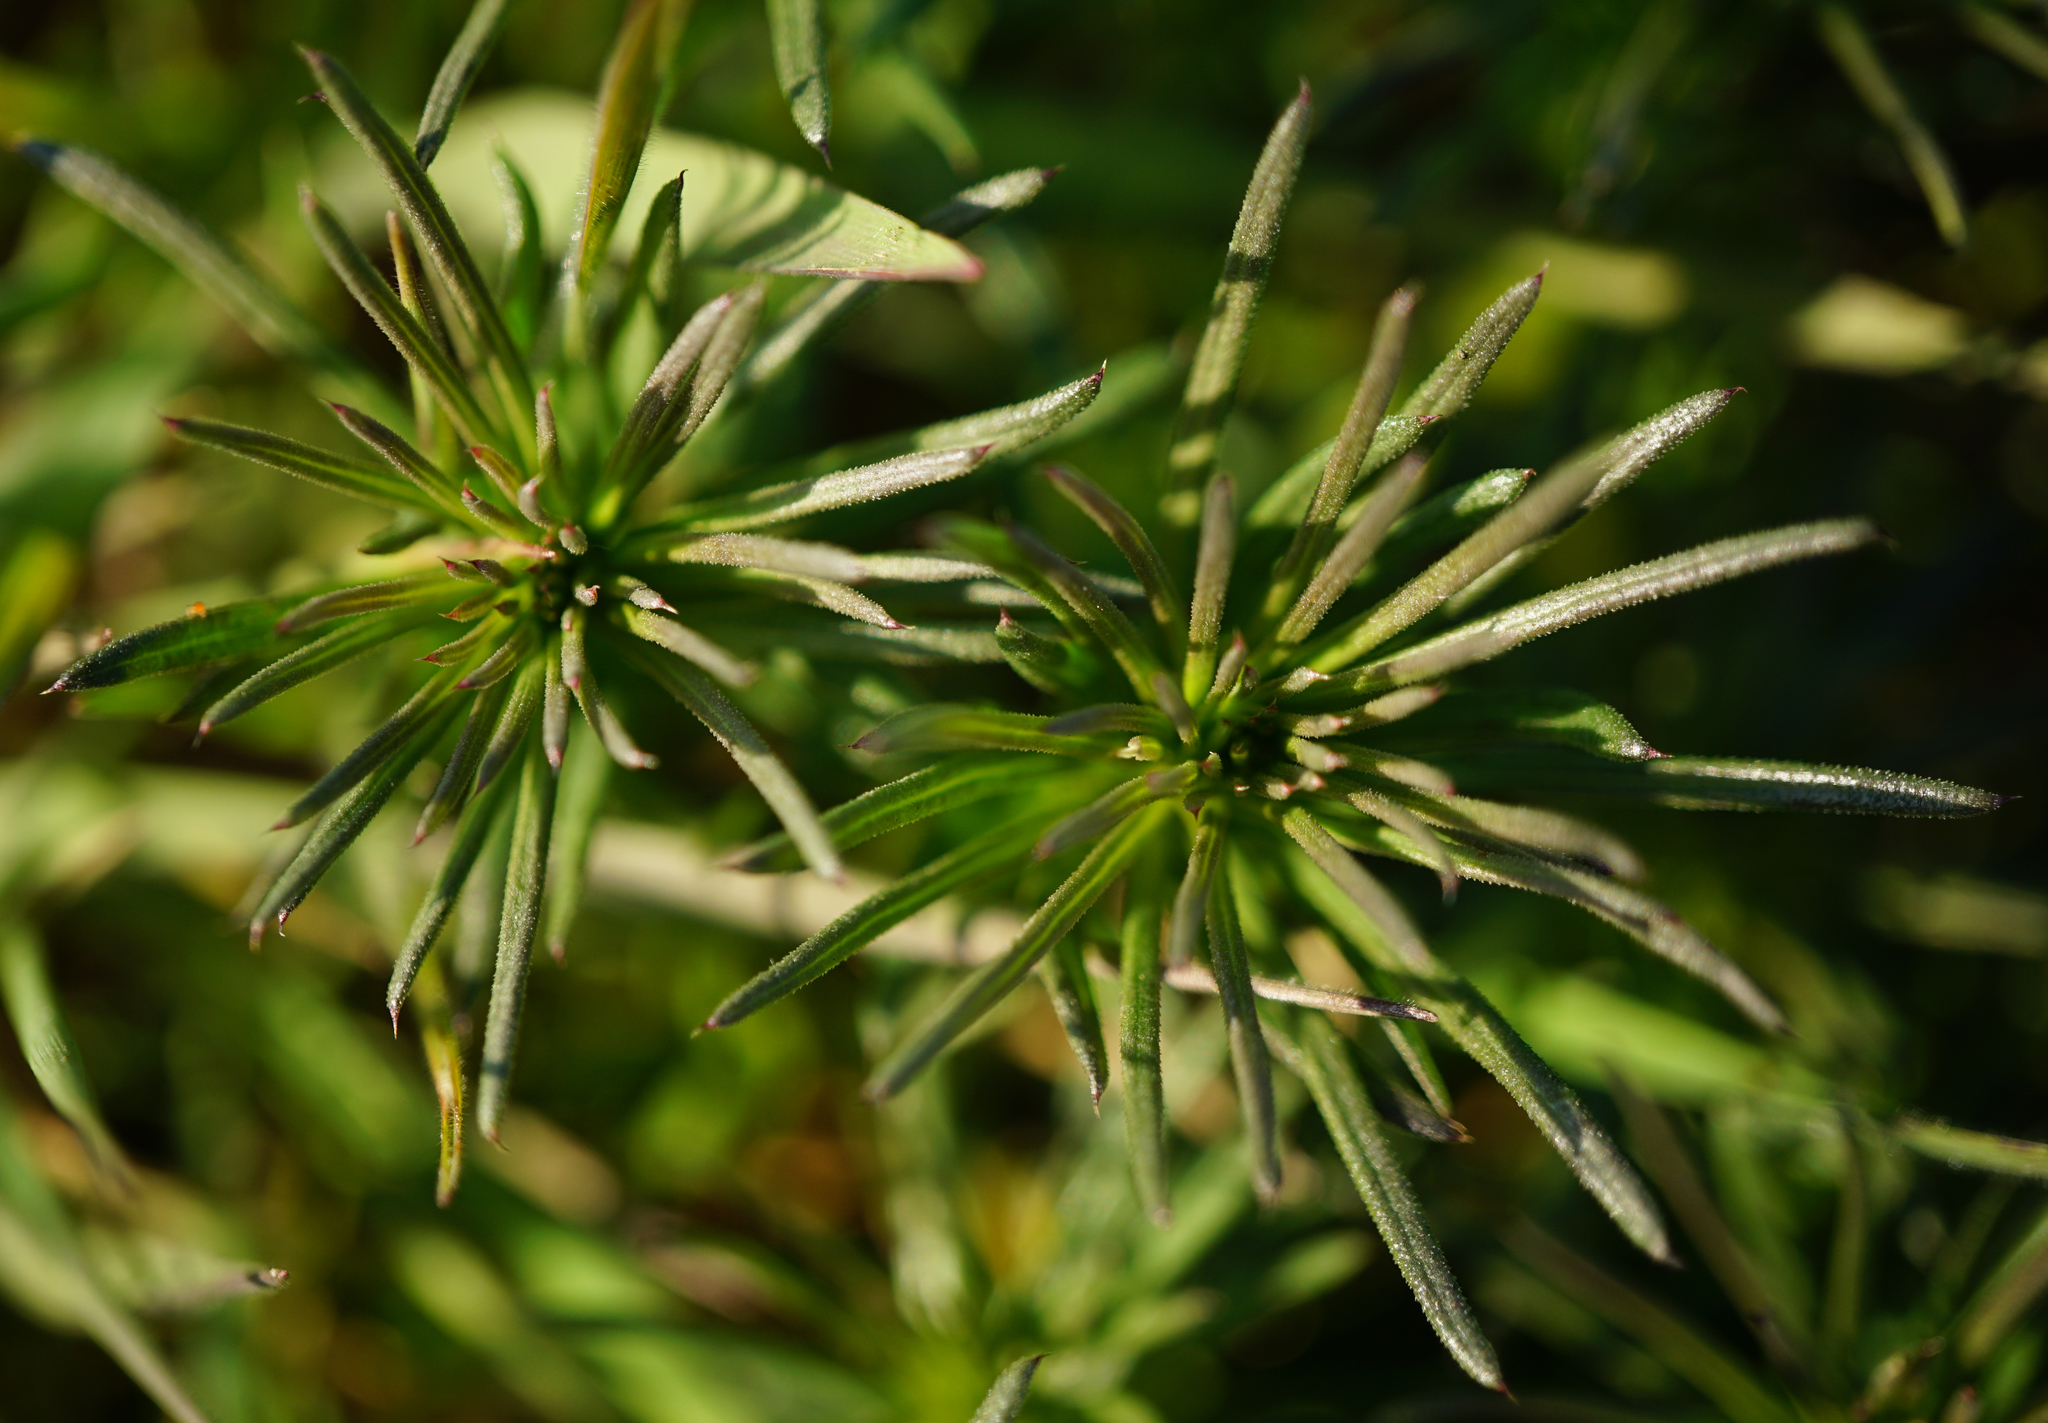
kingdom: Plantae
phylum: Tracheophyta
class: Magnoliopsida
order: Gentianales
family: Rubiaceae
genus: Galium
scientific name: Galium verum
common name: Lady's bedstraw
